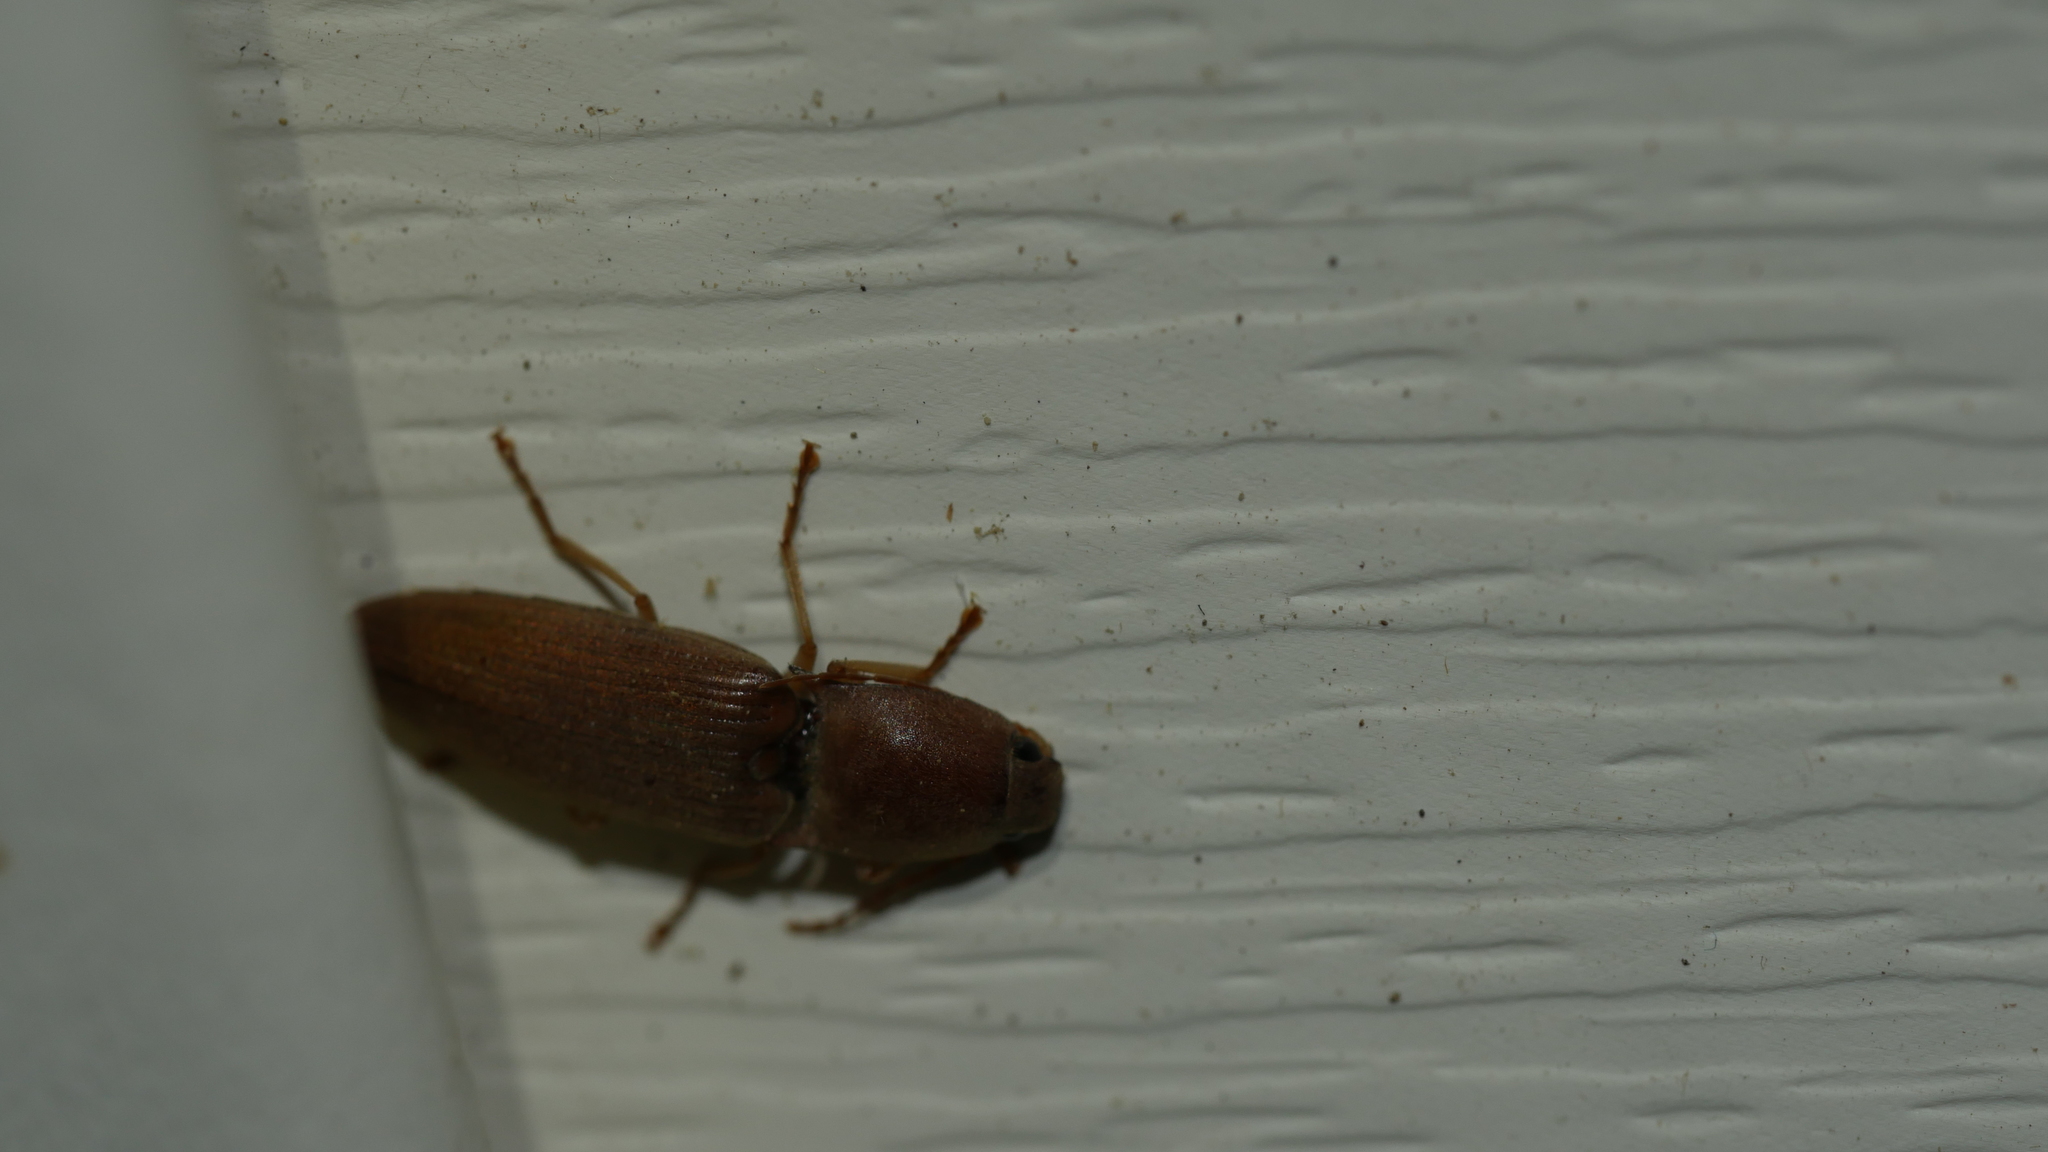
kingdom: Animalia
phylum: Arthropoda
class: Insecta
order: Coleoptera
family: Elateridae
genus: Monocrepidius
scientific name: Monocrepidius lividus
